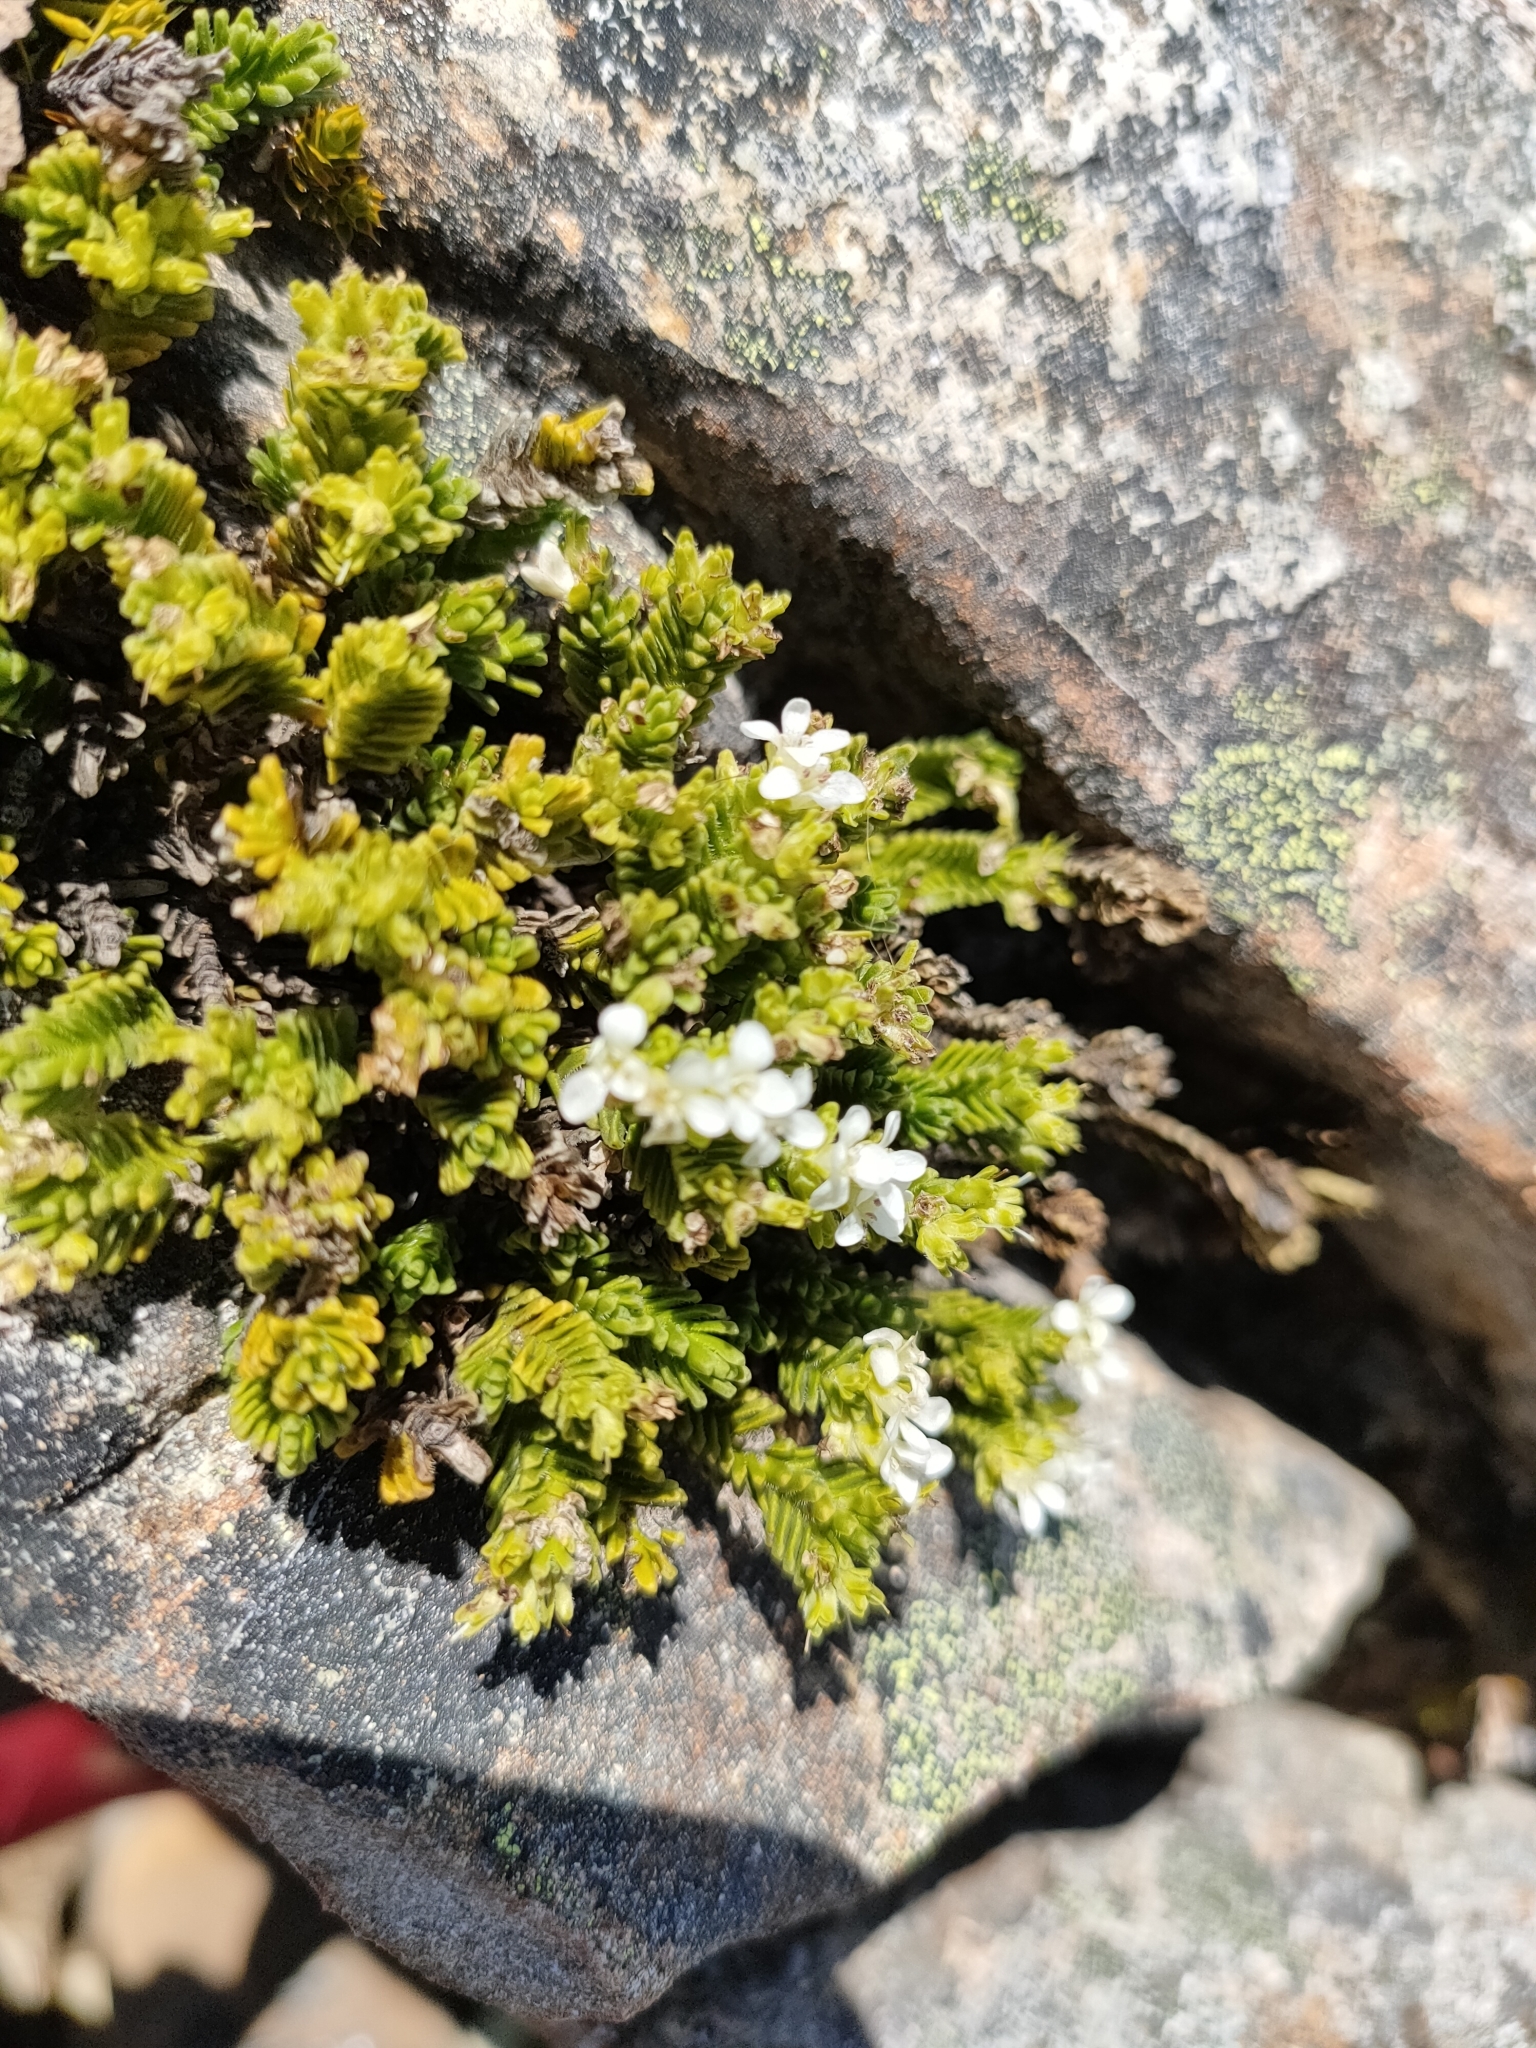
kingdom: Plantae
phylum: Tracheophyta
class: Magnoliopsida
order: Lamiales
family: Plantaginaceae
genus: Veronica
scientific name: Veronica hookeri
